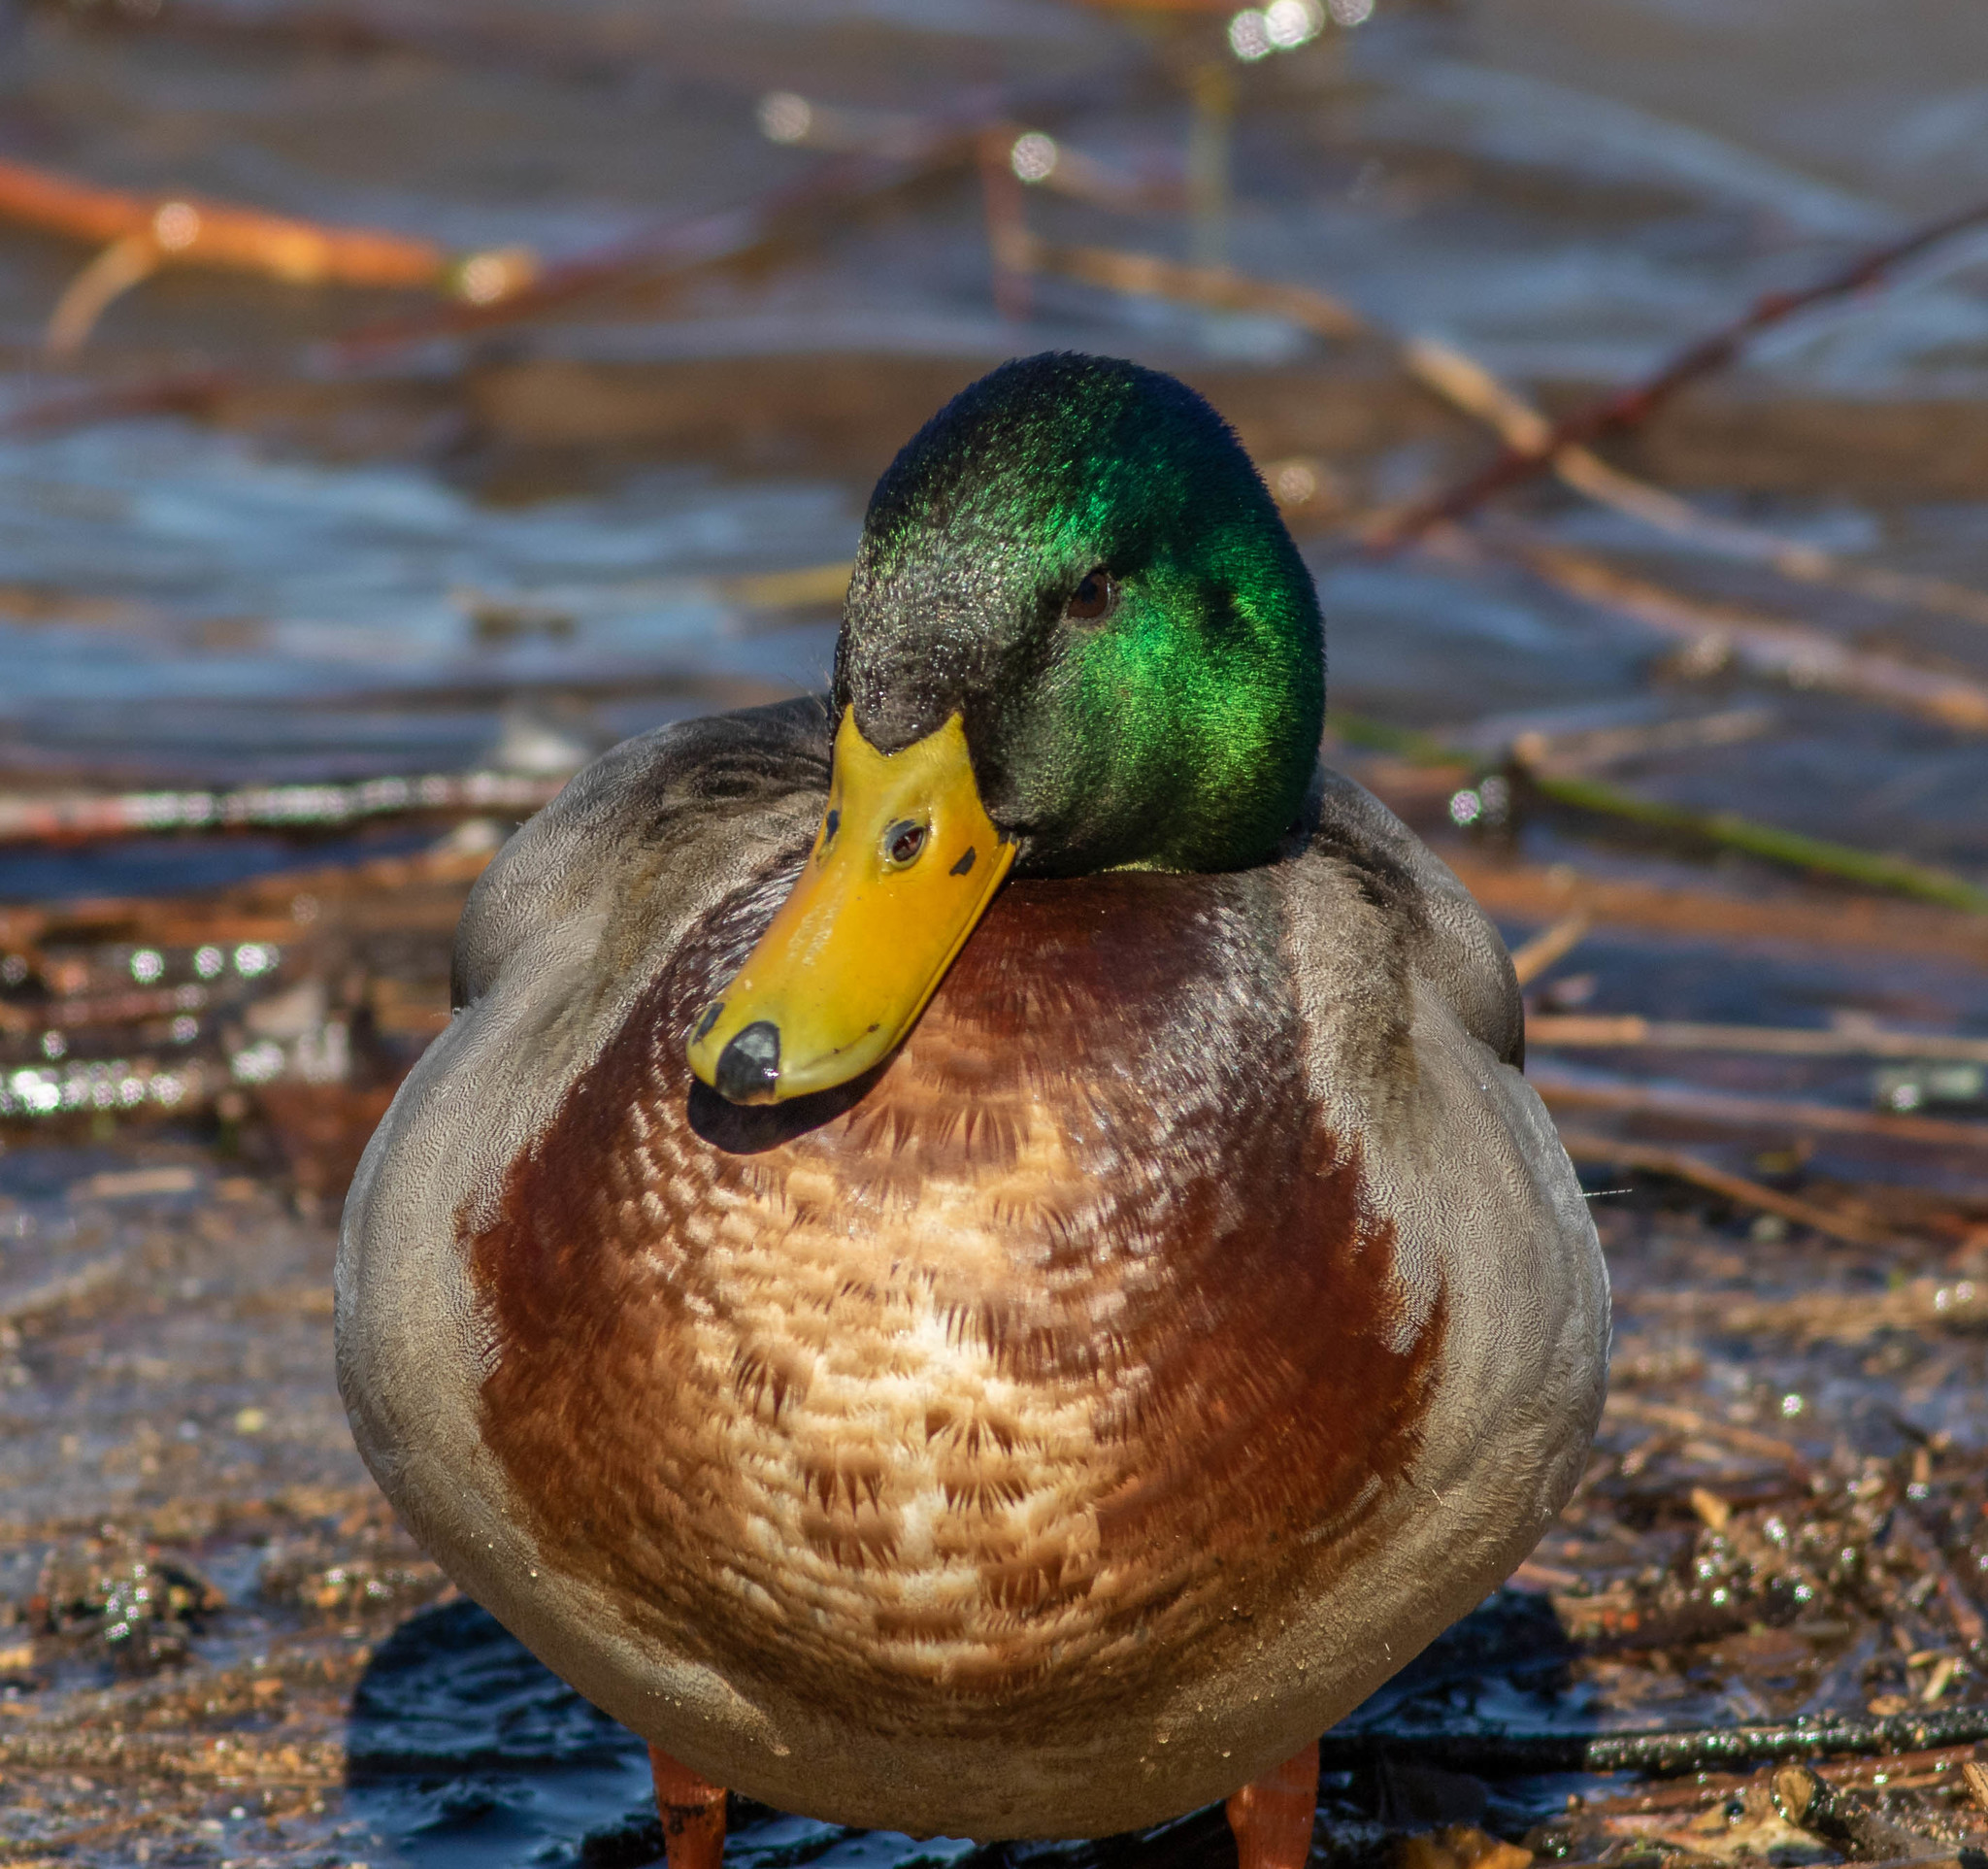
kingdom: Animalia
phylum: Chordata
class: Aves
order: Anseriformes
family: Anatidae
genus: Anas
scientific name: Anas platyrhynchos
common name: Mallard
